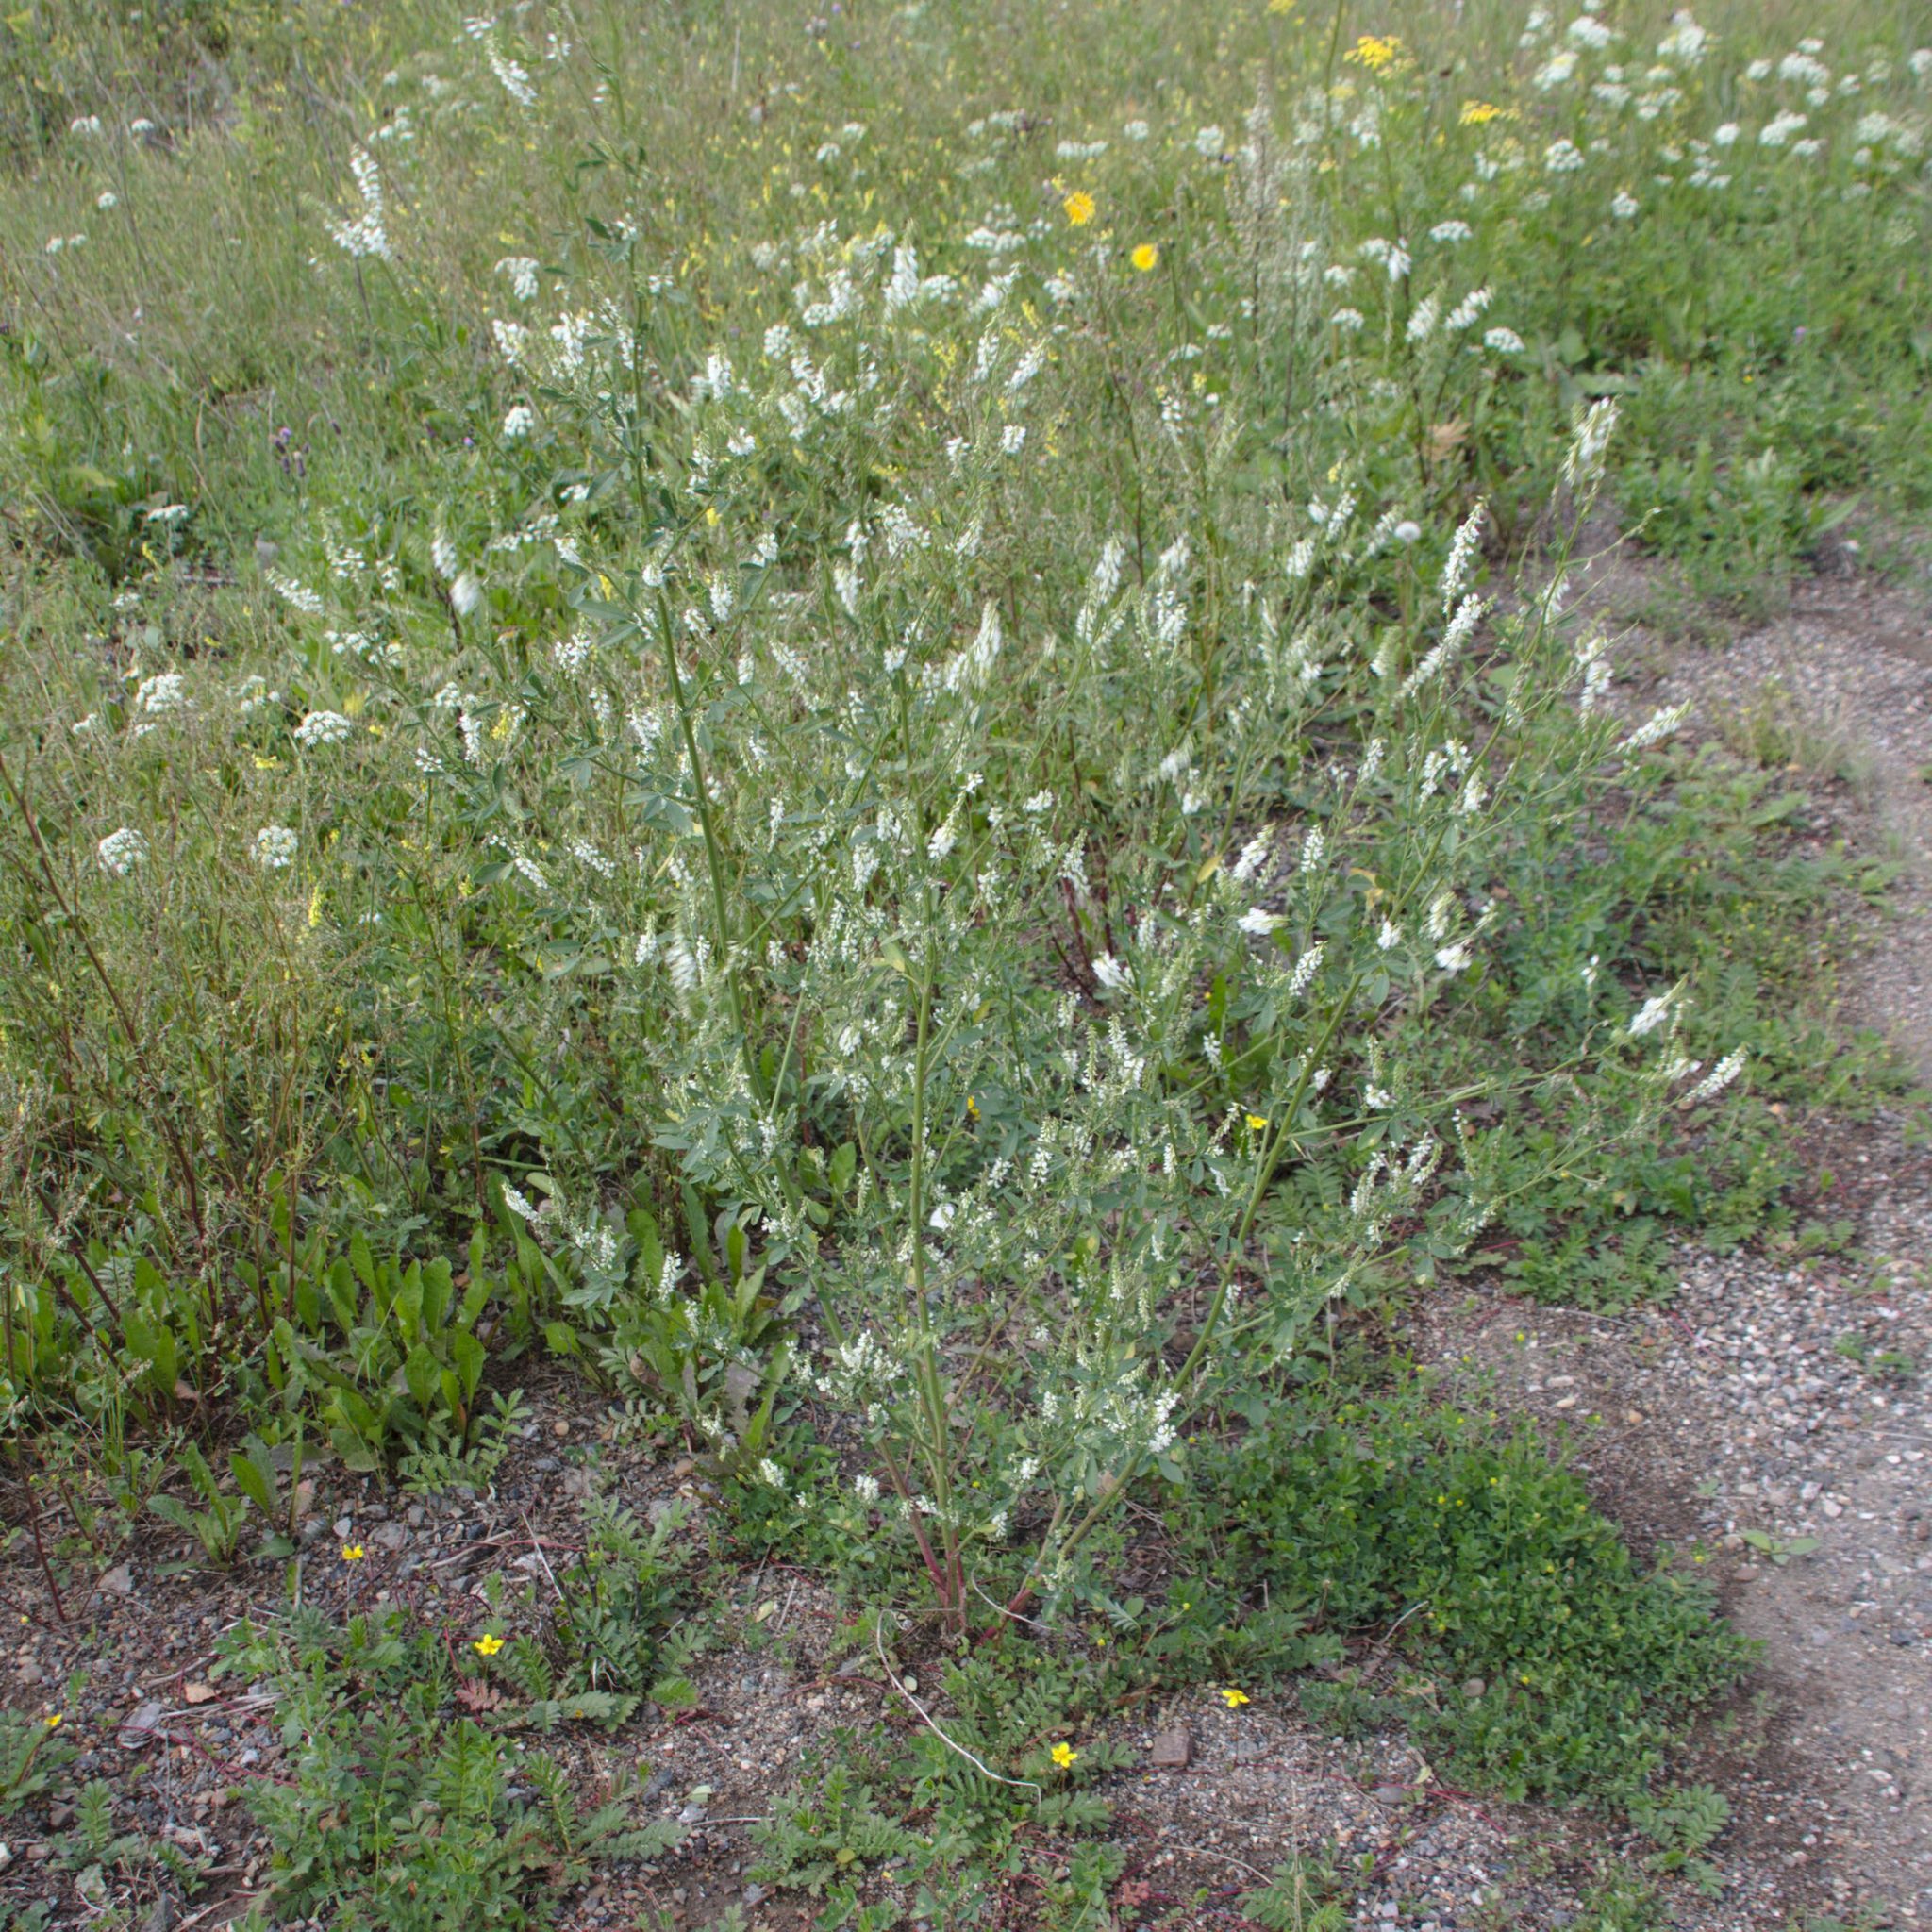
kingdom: Plantae
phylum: Tracheophyta
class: Magnoliopsida
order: Fabales
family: Fabaceae
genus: Melilotus
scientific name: Melilotus albus
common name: White melilot
